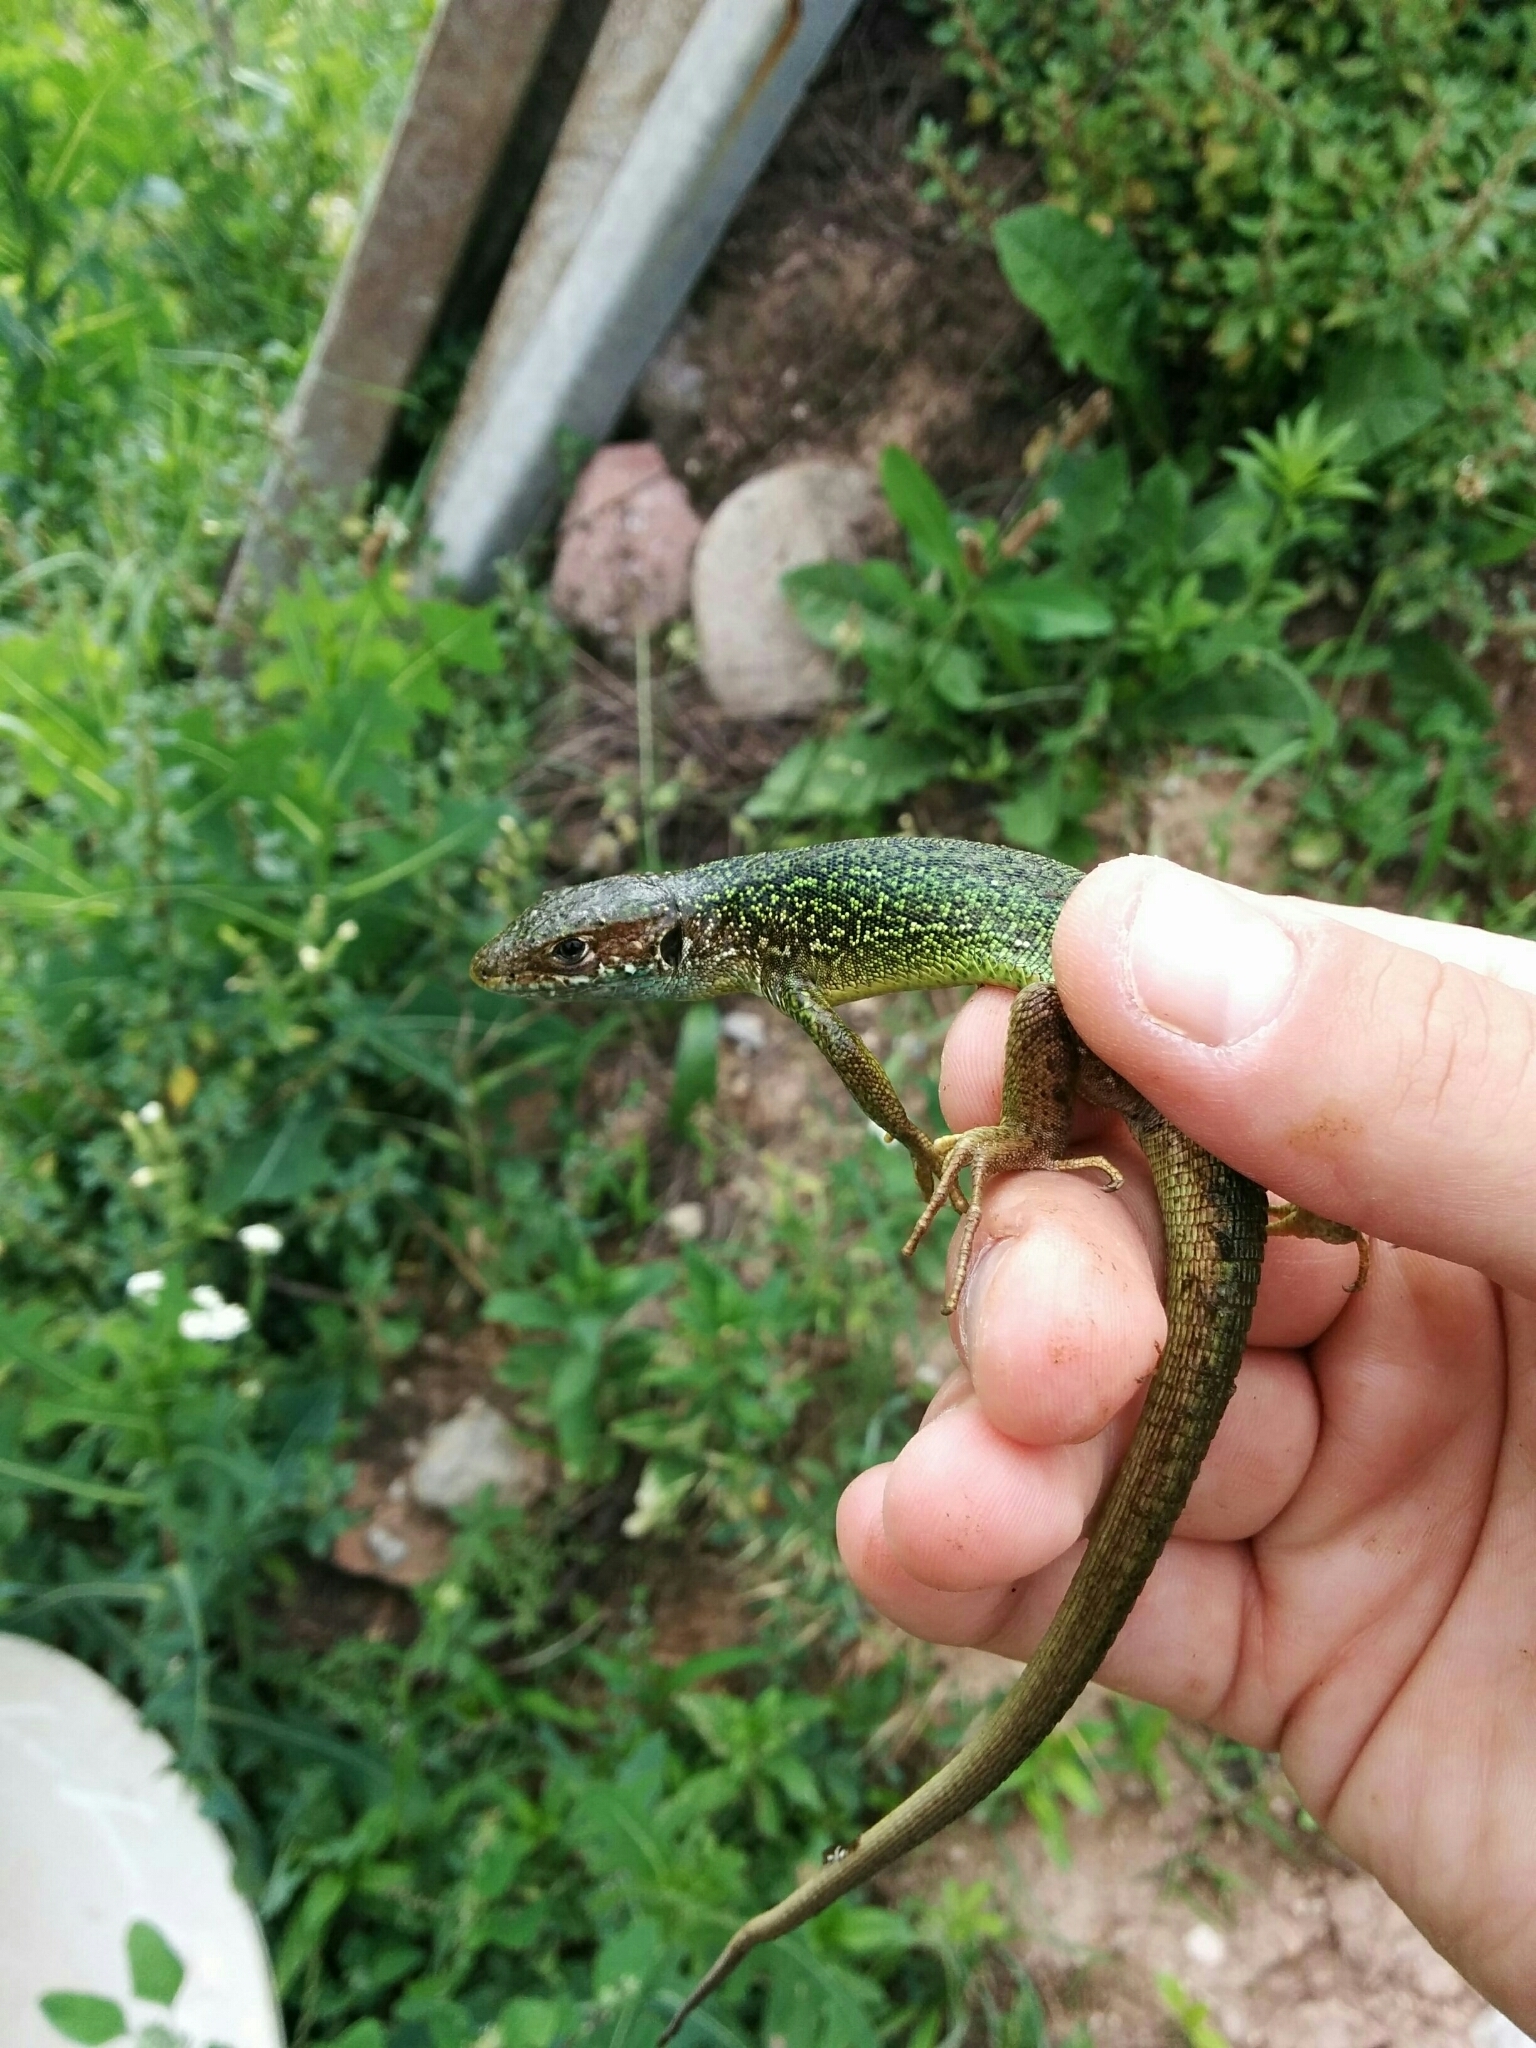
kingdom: Animalia
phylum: Chordata
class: Squamata
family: Lacertidae
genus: Lacerta
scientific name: Lacerta bilineata
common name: Western green lizard
